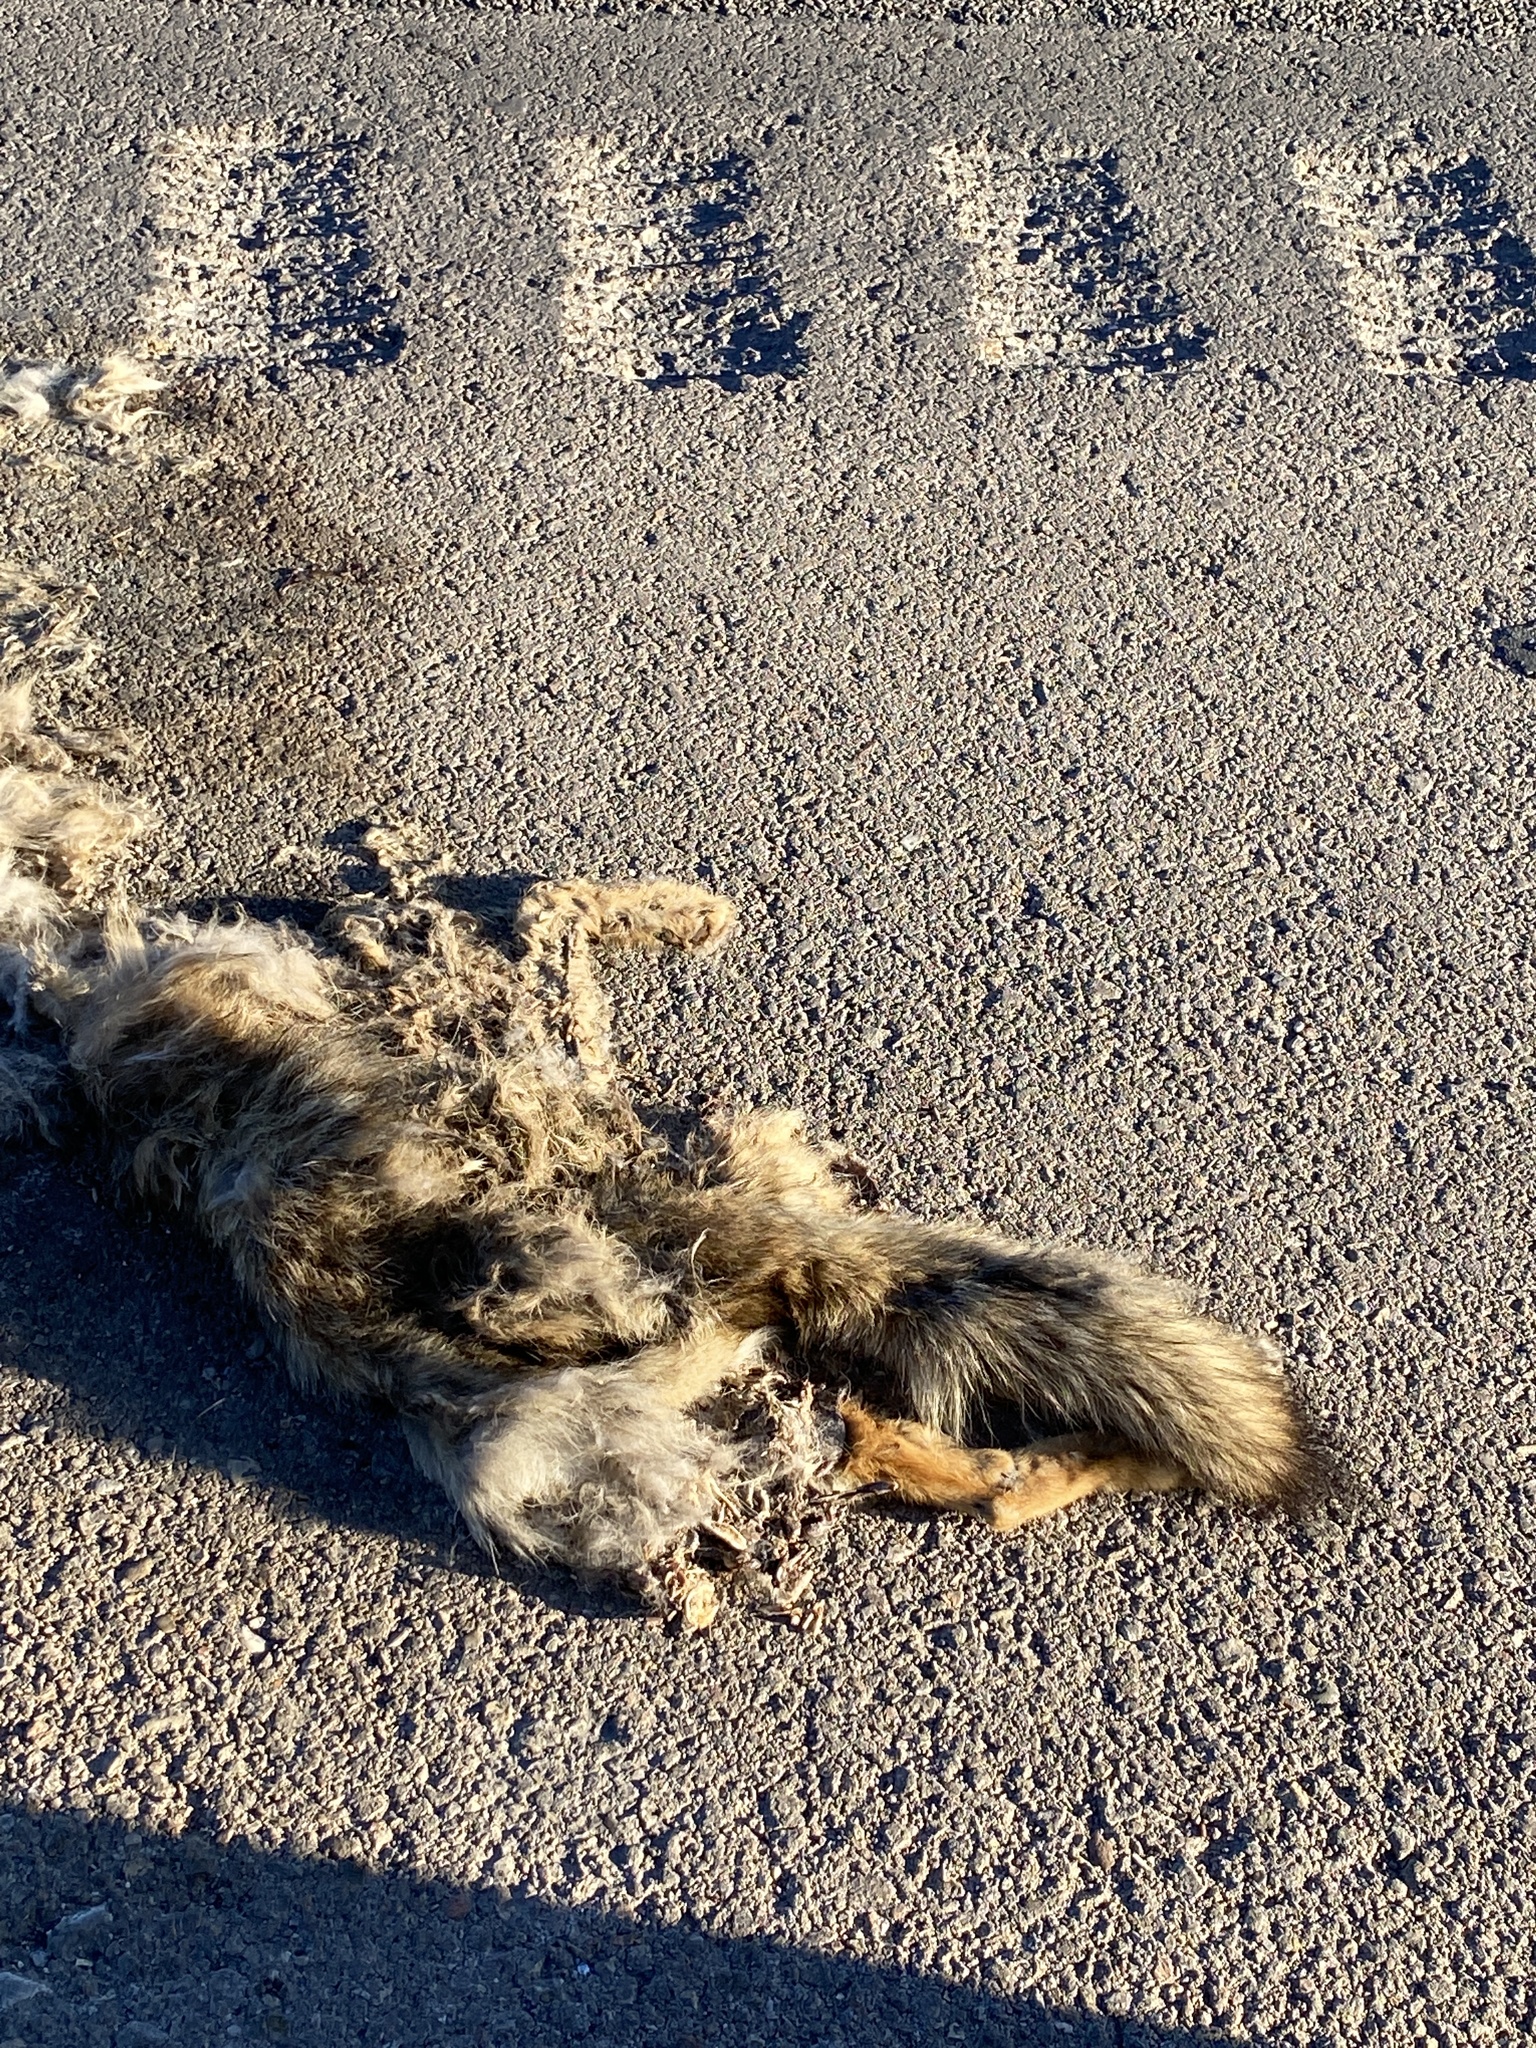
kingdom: Animalia
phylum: Chordata
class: Mammalia
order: Carnivora
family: Canidae
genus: Canis
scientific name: Canis latrans
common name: Coyote
